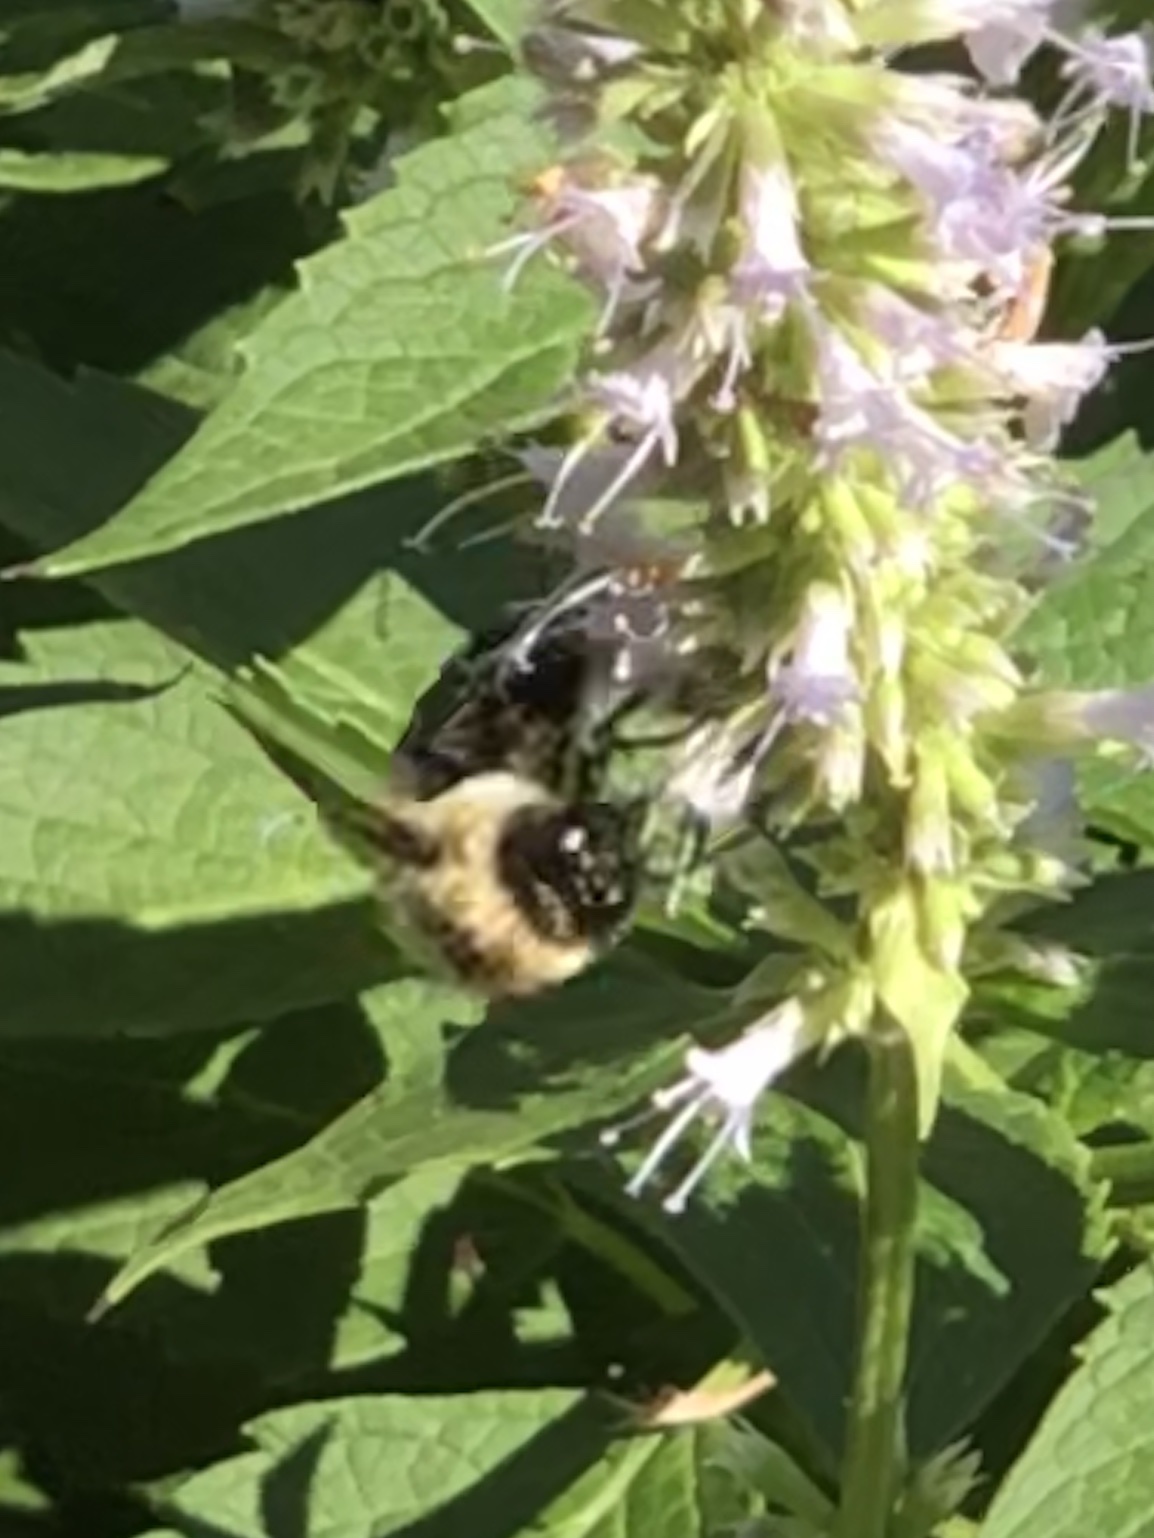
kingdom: Animalia
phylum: Arthropoda
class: Insecta
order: Hymenoptera
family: Apidae
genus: Bombus
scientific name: Bombus griseocollis
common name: Brown-belted bumble bee
